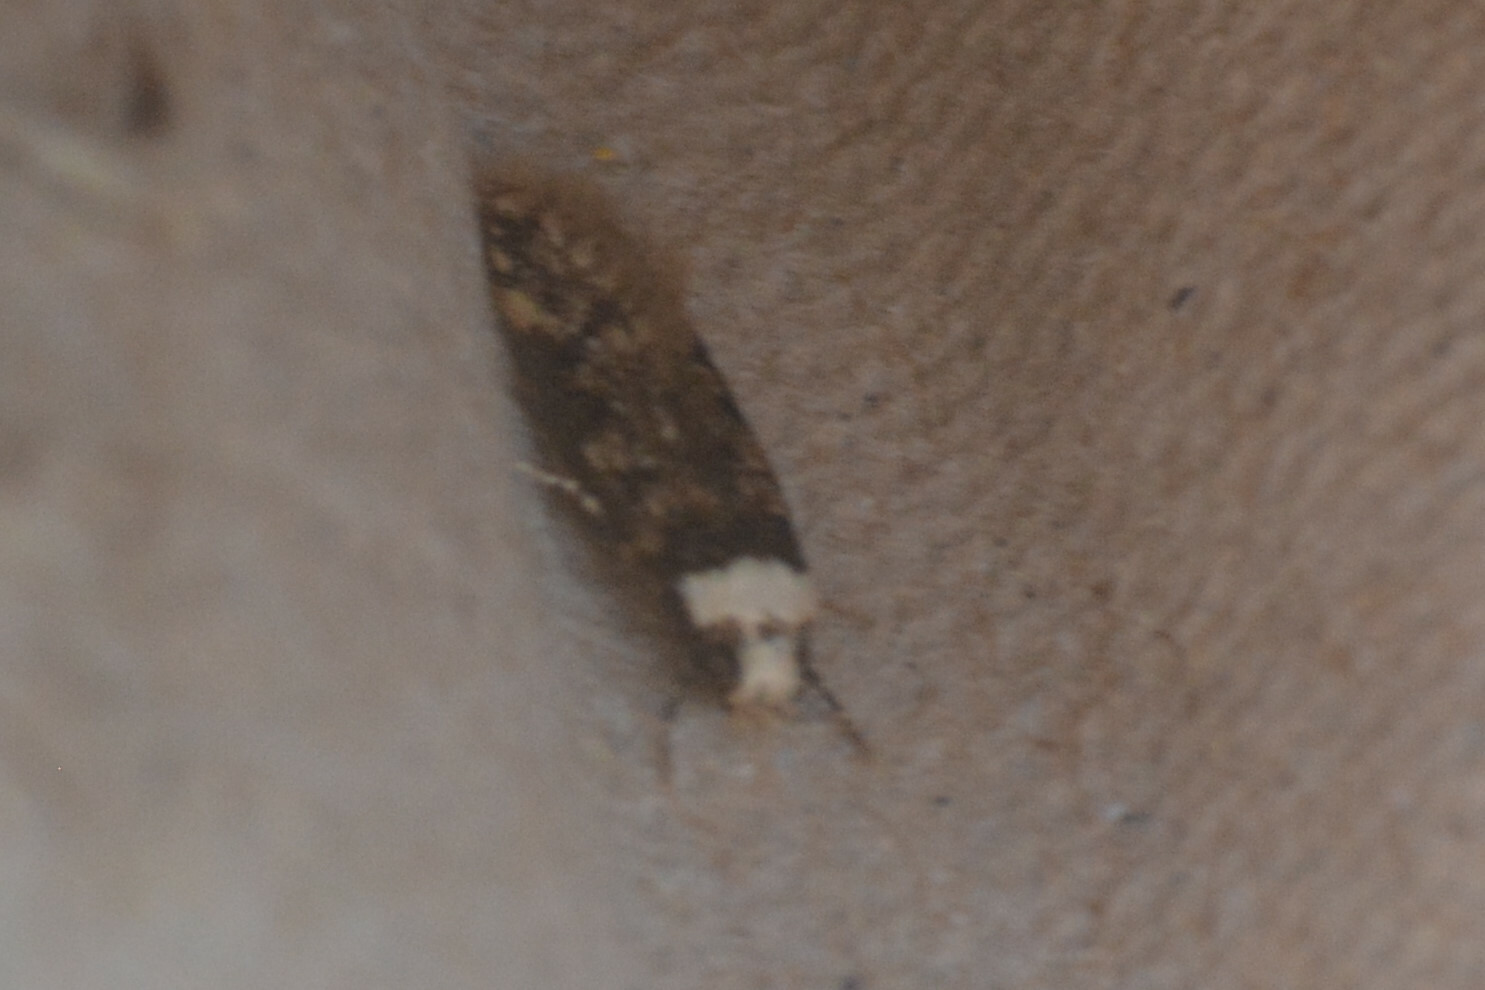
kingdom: Animalia
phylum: Arthropoda
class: Insecta
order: Lepidoptera
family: Oecophoridae
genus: Endrosis
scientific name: Endrosis sarcitrella
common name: White-shouldered house moth
